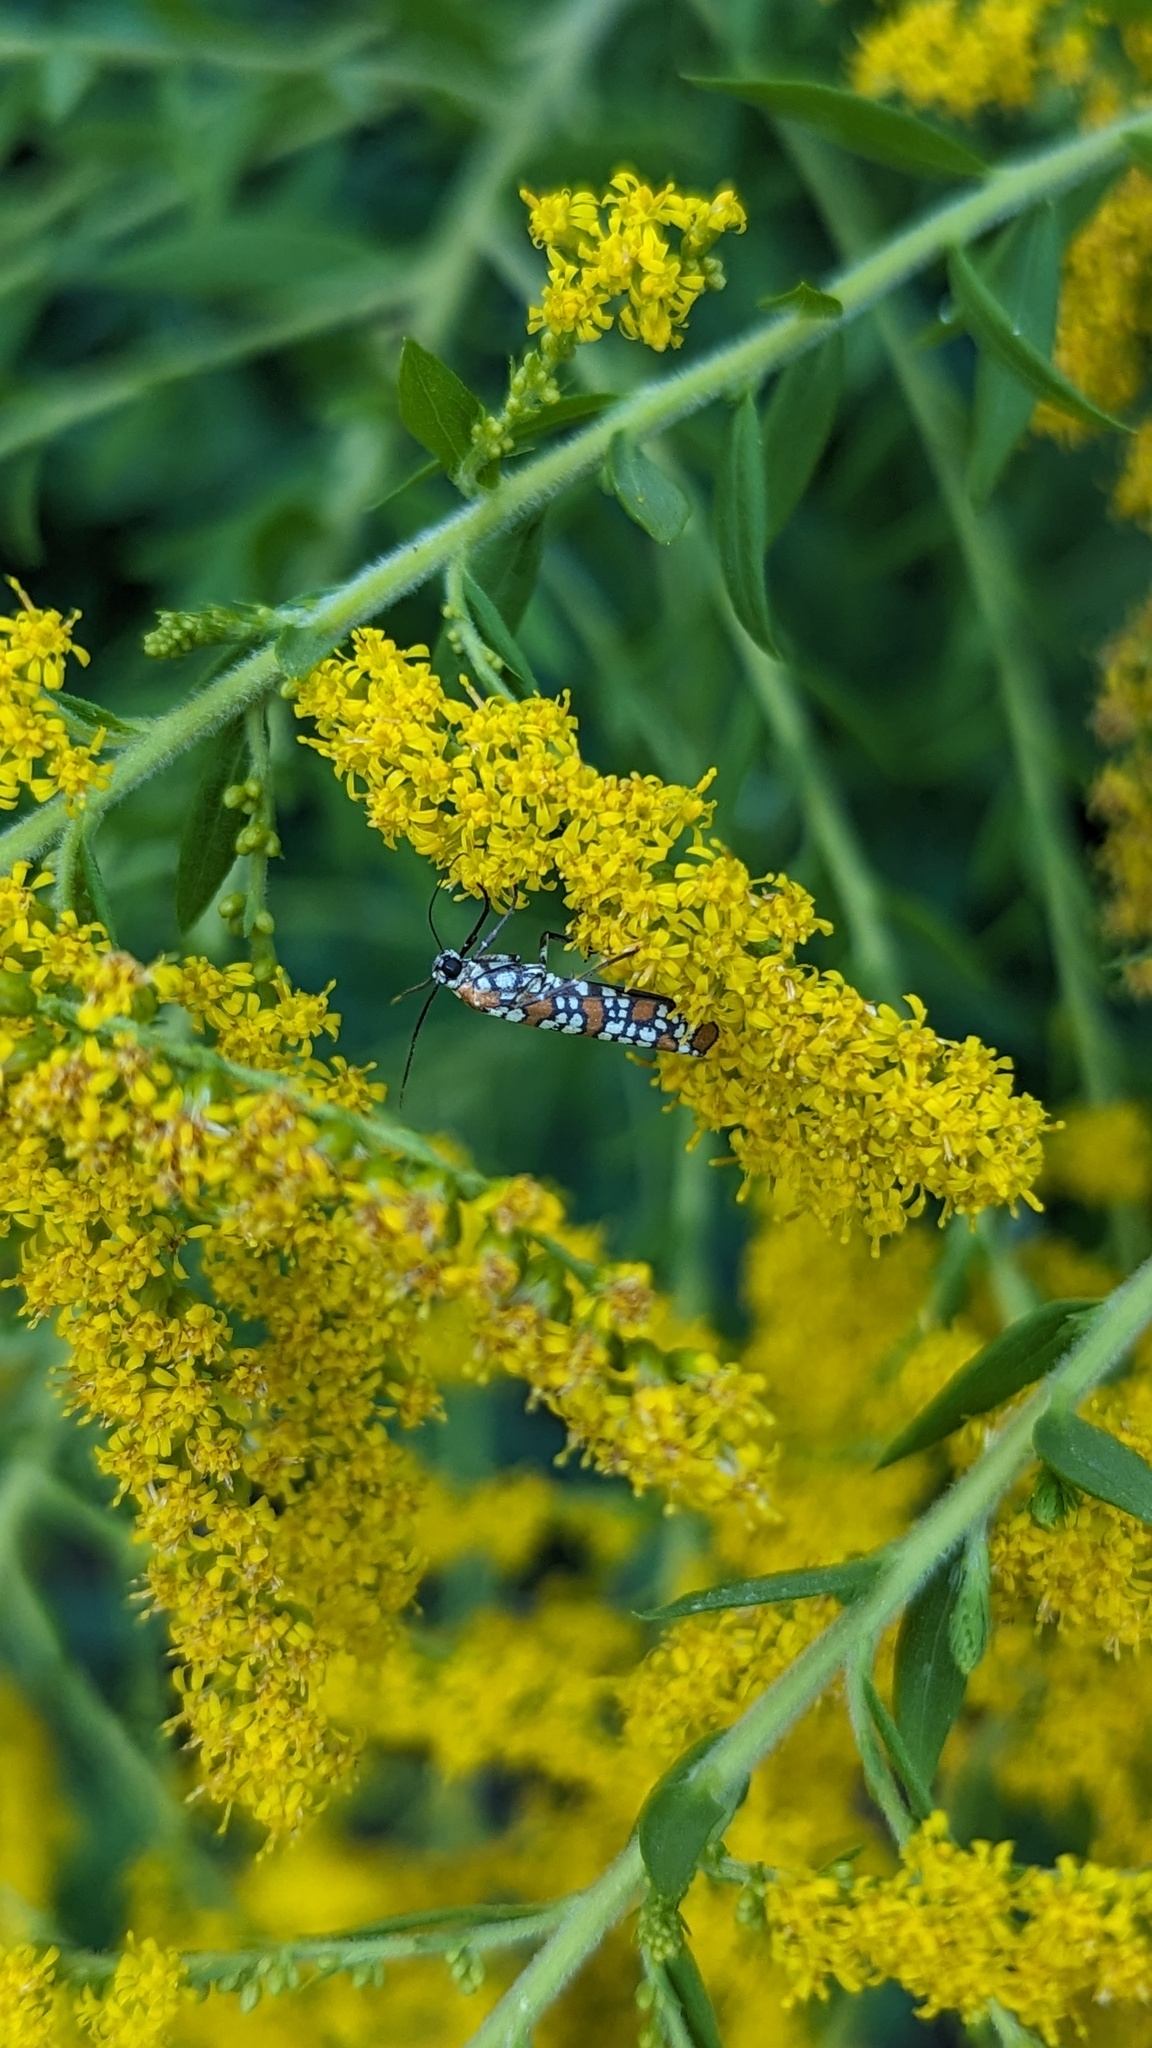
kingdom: Animalia
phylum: Arthropoda
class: Insecta
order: Lepidoptera
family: Attevidae
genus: Atteva
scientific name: Atteva punctella
